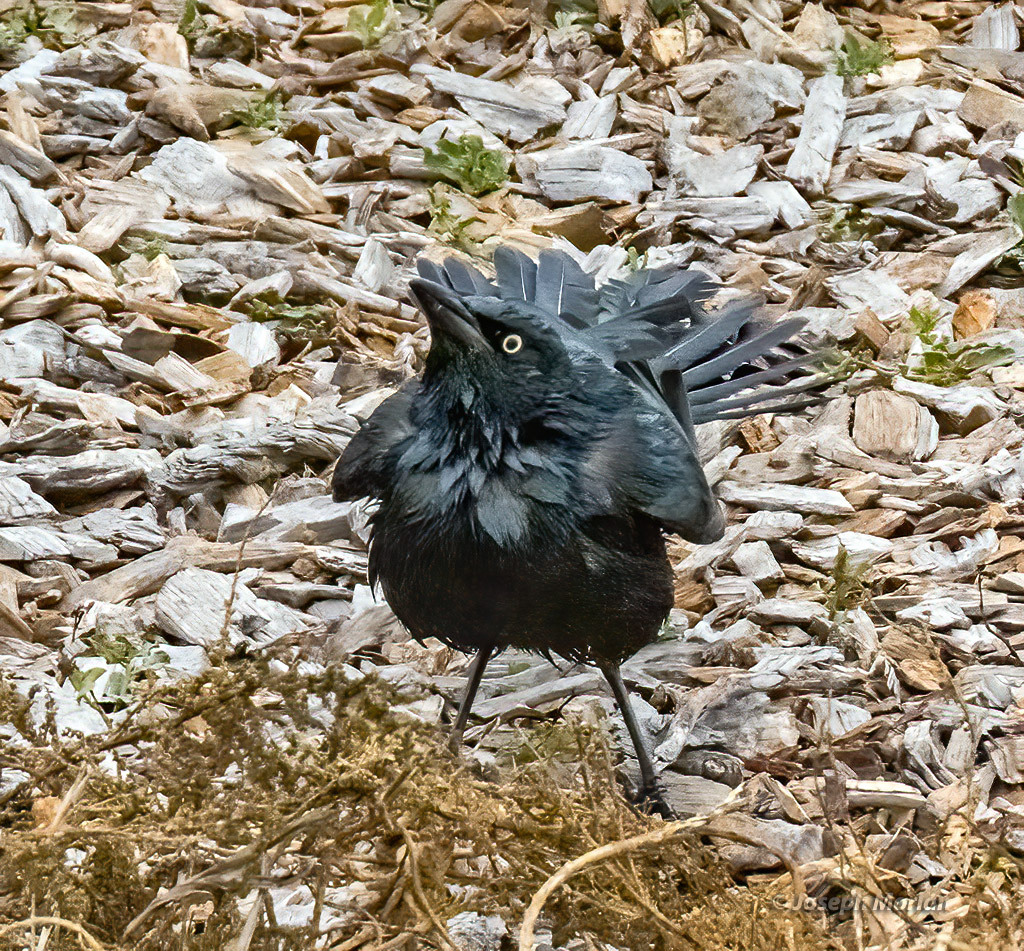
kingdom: Animalia
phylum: Chordata
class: Aves
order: Passeriformes
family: Icteridae
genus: Quiscalus
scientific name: Quiscalus mexicanus
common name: Great-tailed grackle
